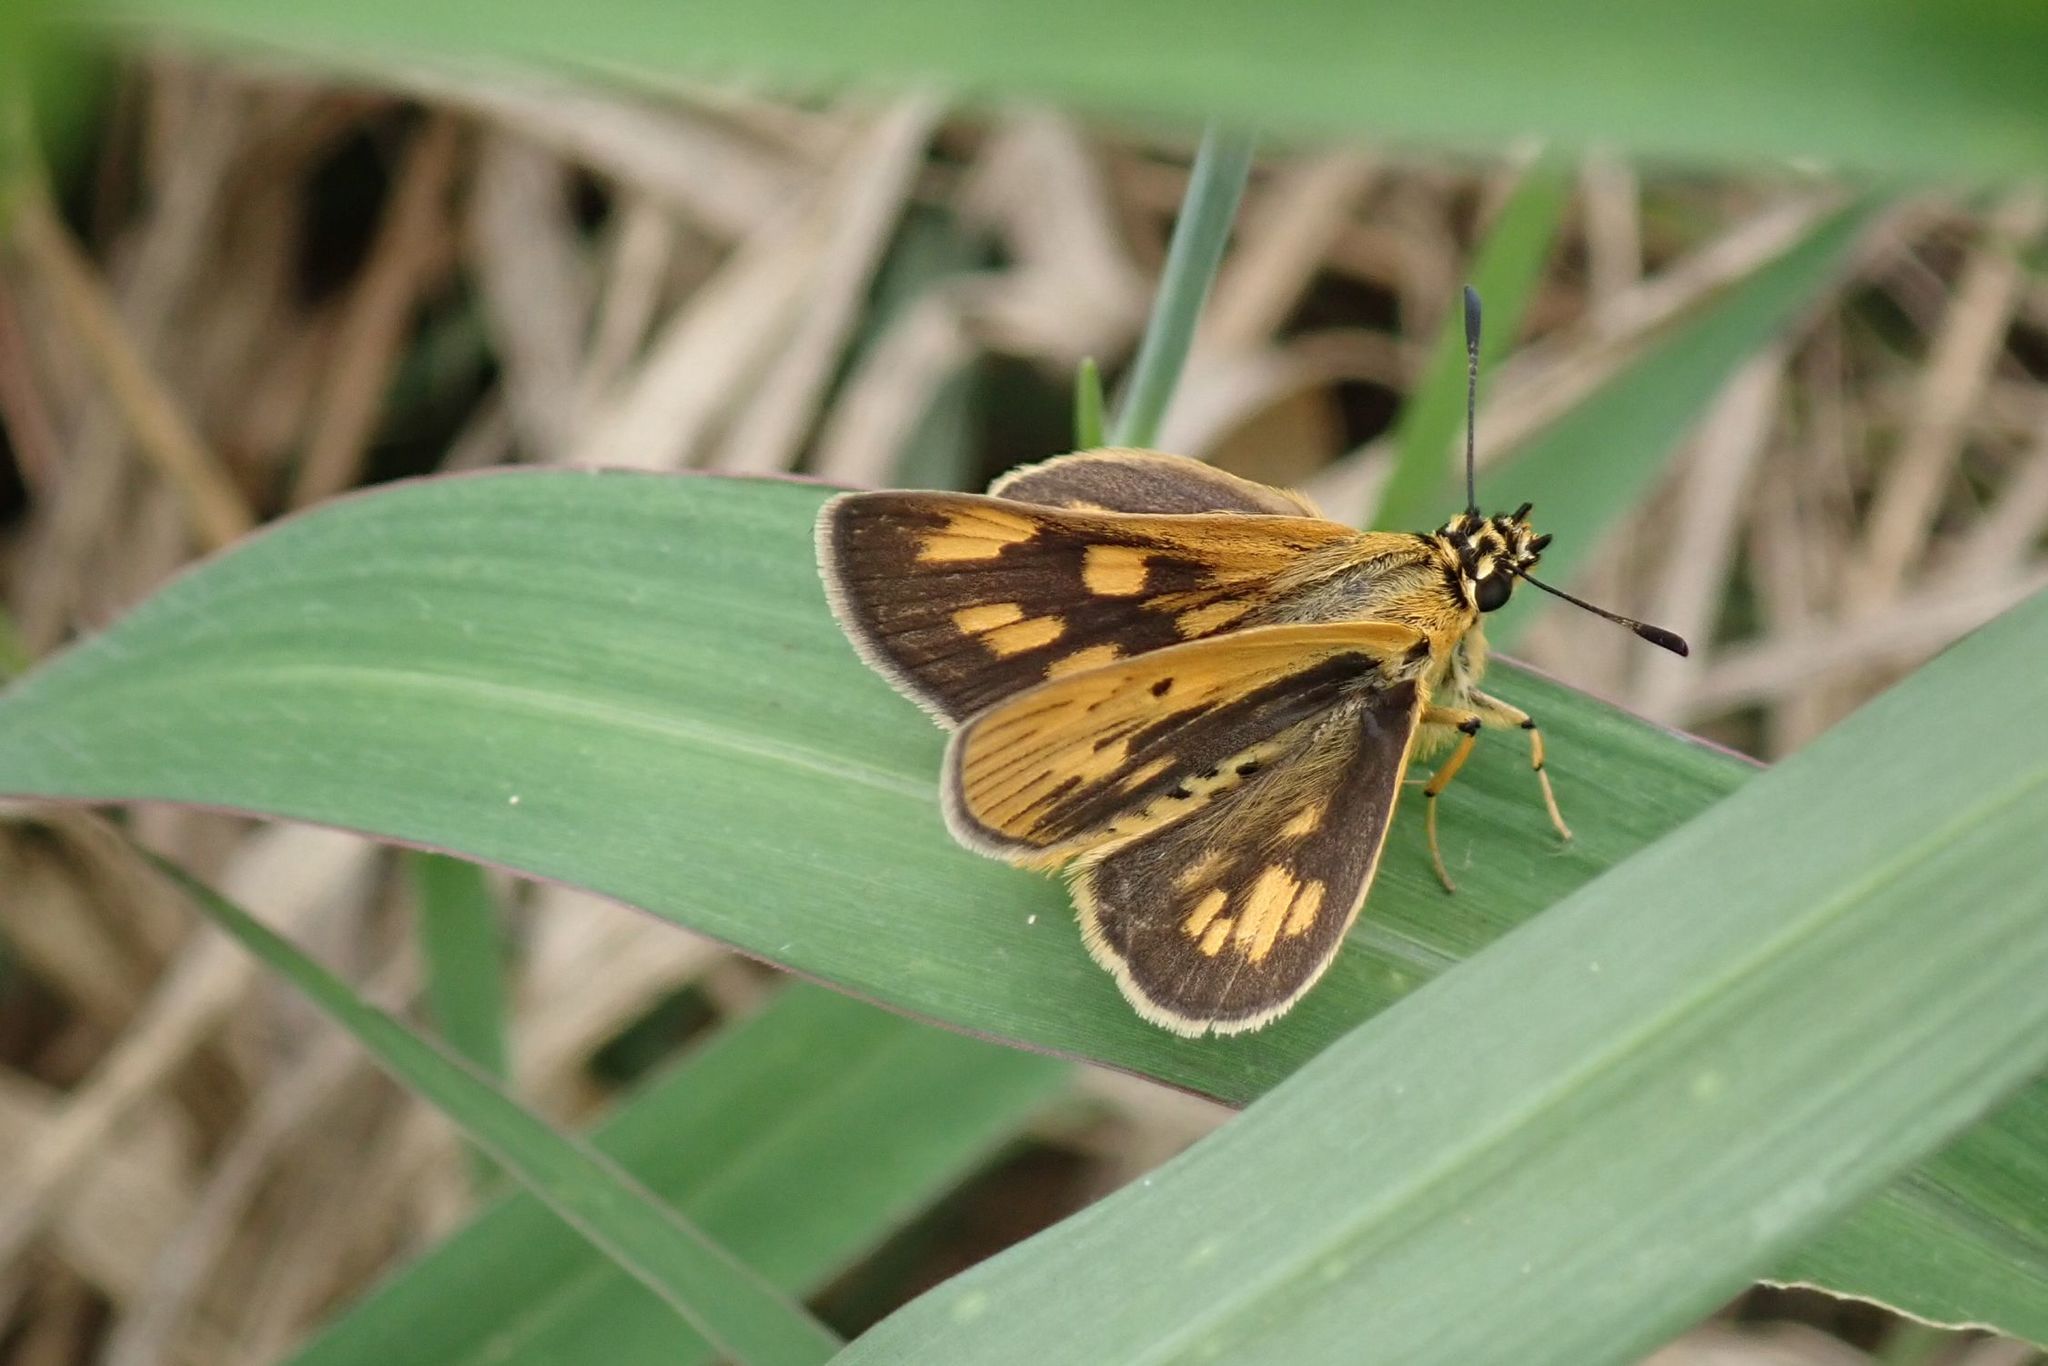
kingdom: Animalia
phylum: Arthropoda
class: Insecta
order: Lepidoptera
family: Hesperiidae
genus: Kedestes
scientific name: Kedestes lepenula
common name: Chequered ranger
